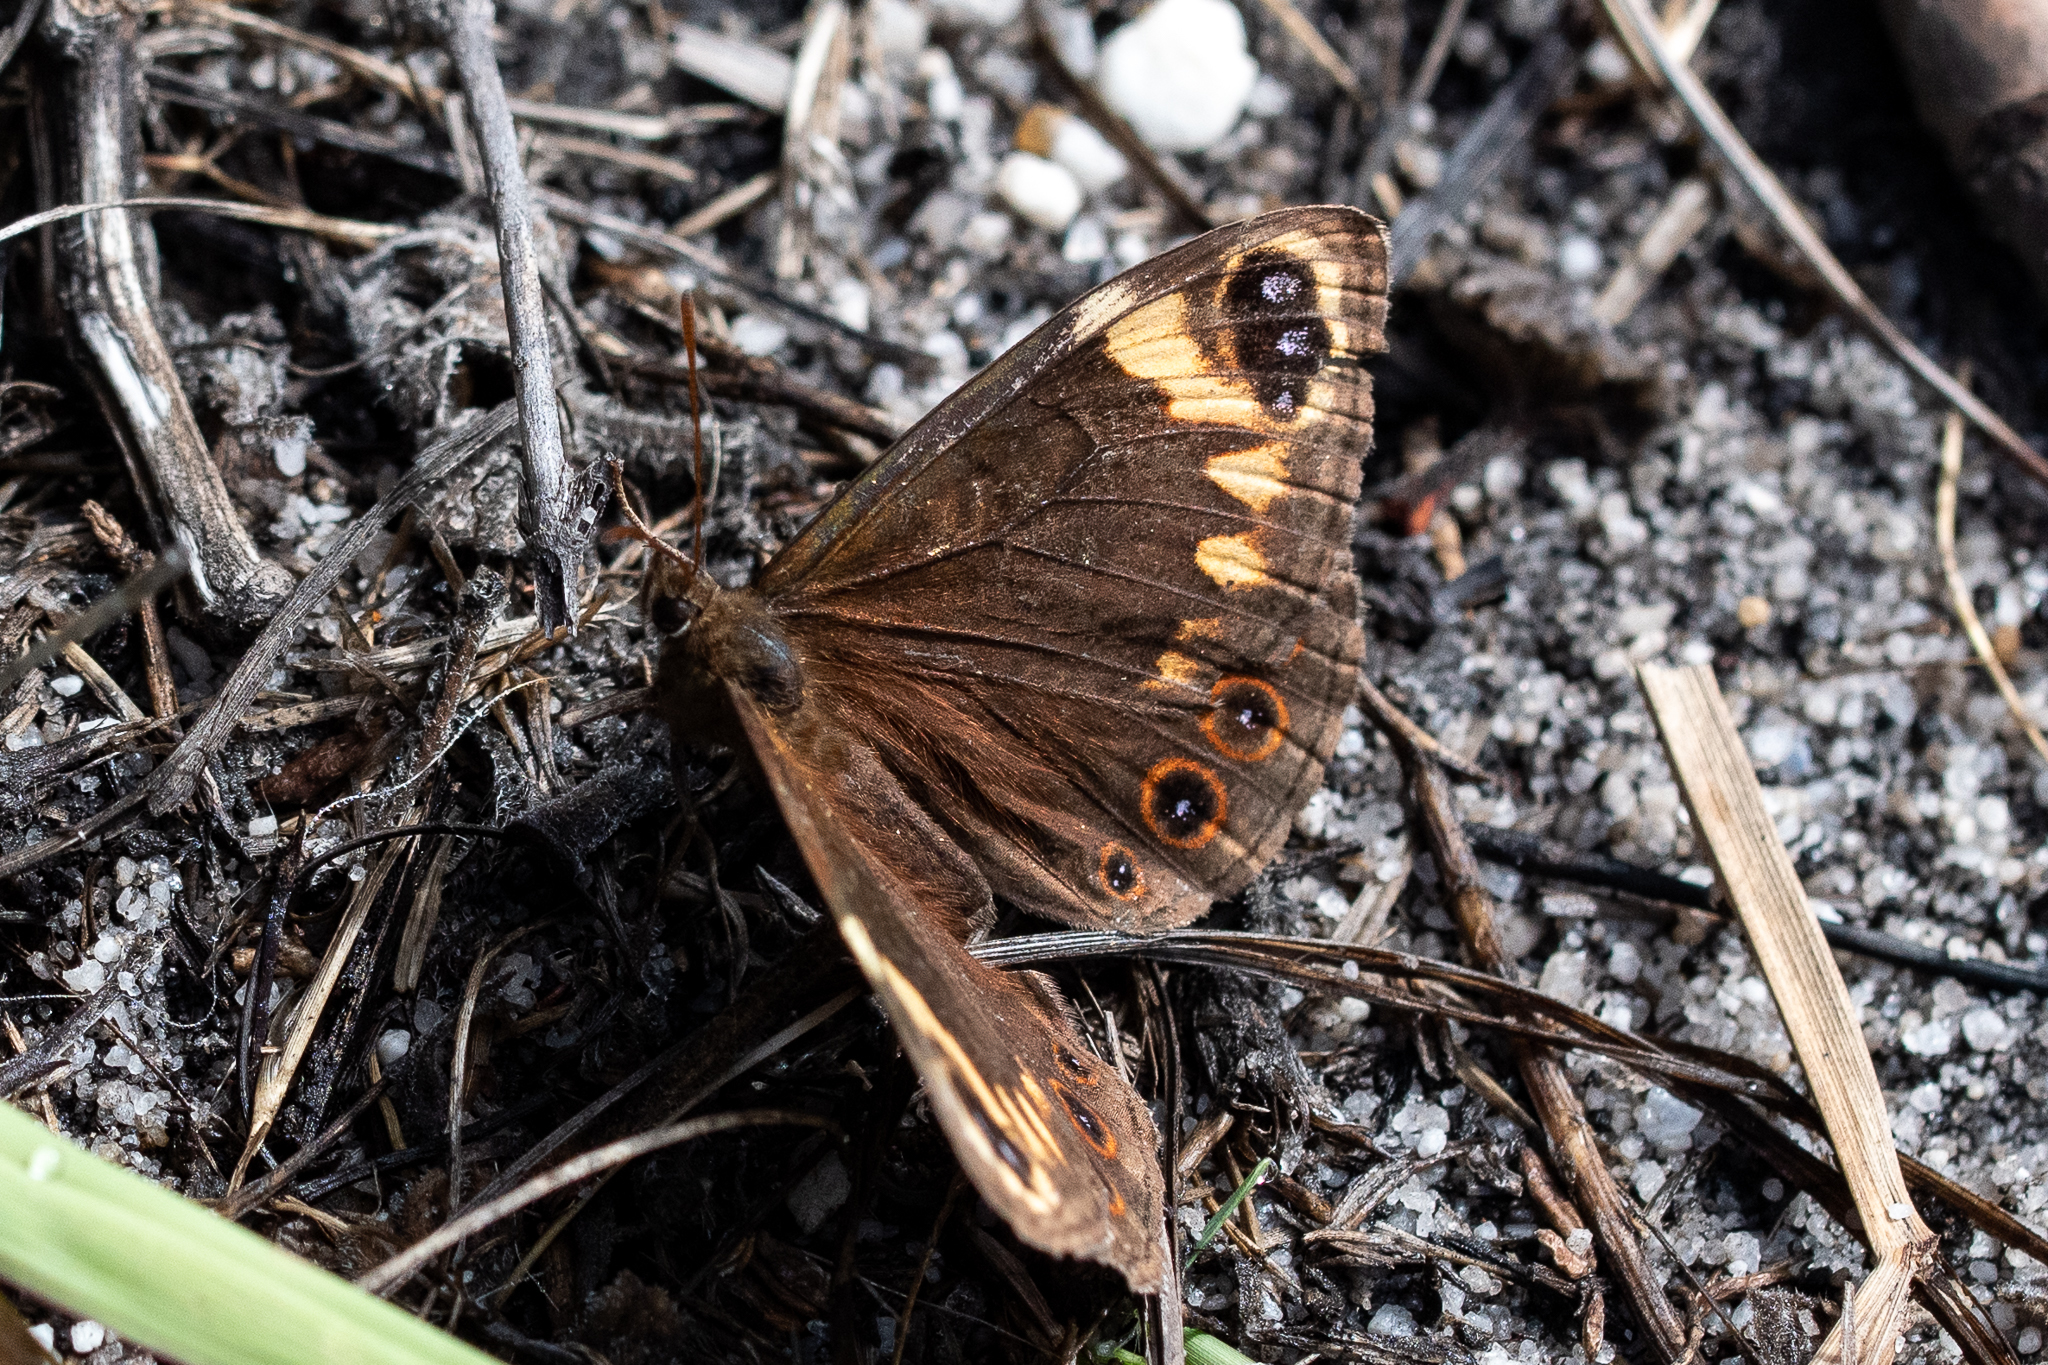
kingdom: Animalia
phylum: Arthropoda
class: Insecta
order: Lepidoptera
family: Nymphalidae
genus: Dira
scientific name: Dira clytus
